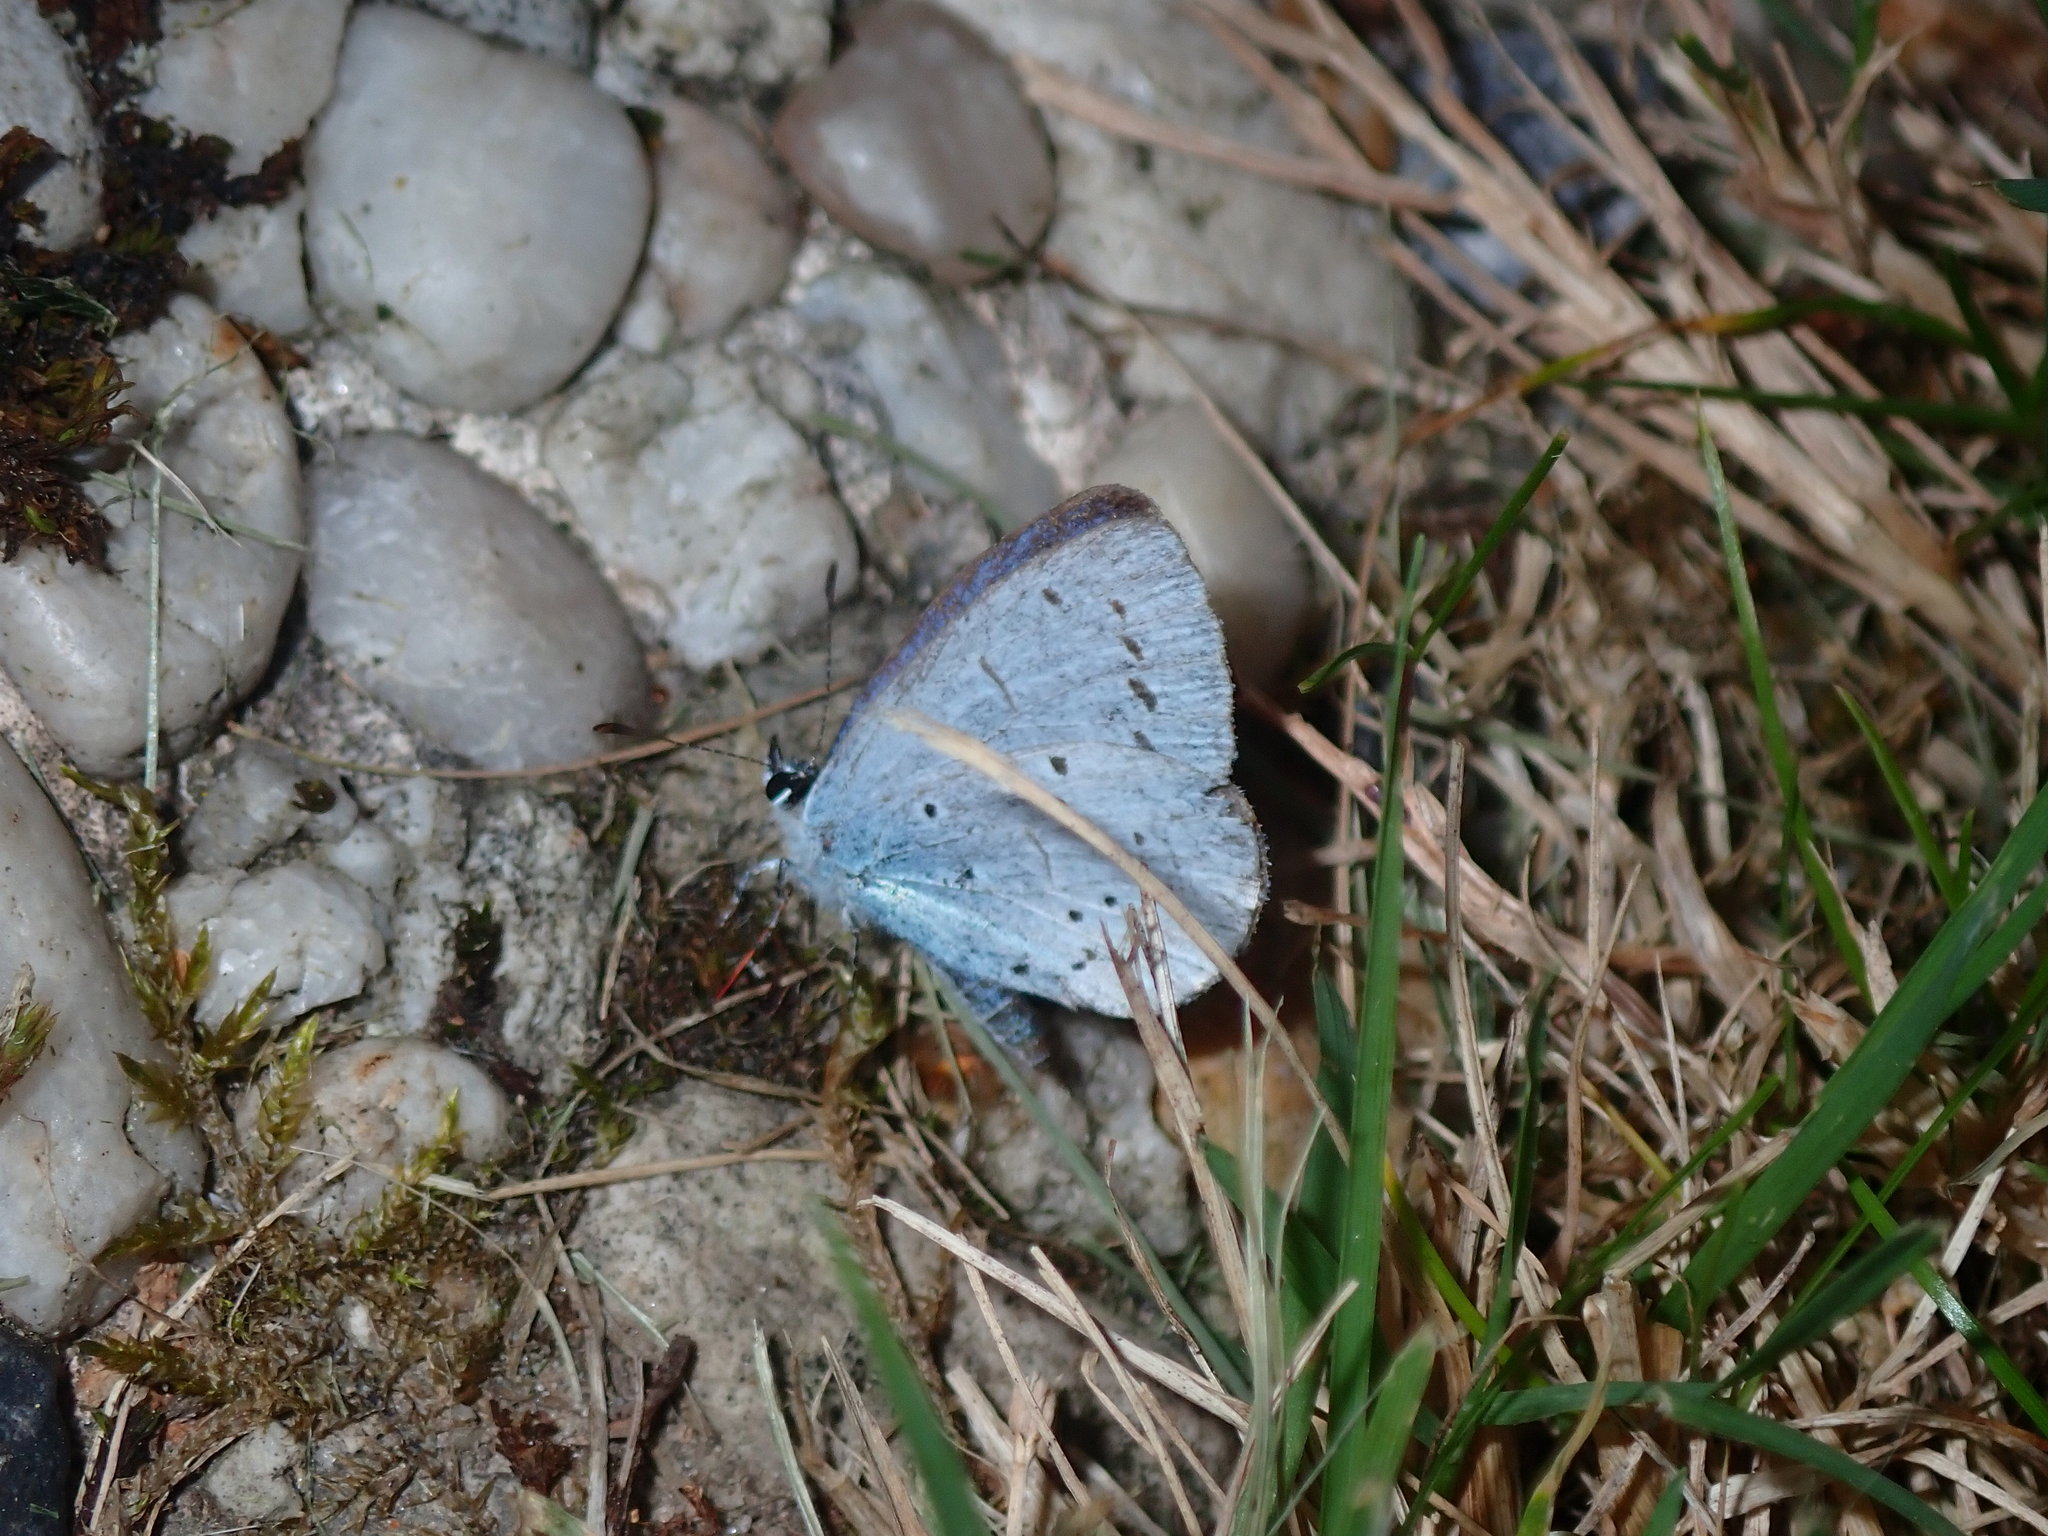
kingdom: Animalia
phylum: Arthropoda
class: Insecta
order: Lepidoptera
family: Lycaenidae
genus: Celastrina
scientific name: Celastrina argiolus
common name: Holly blue
